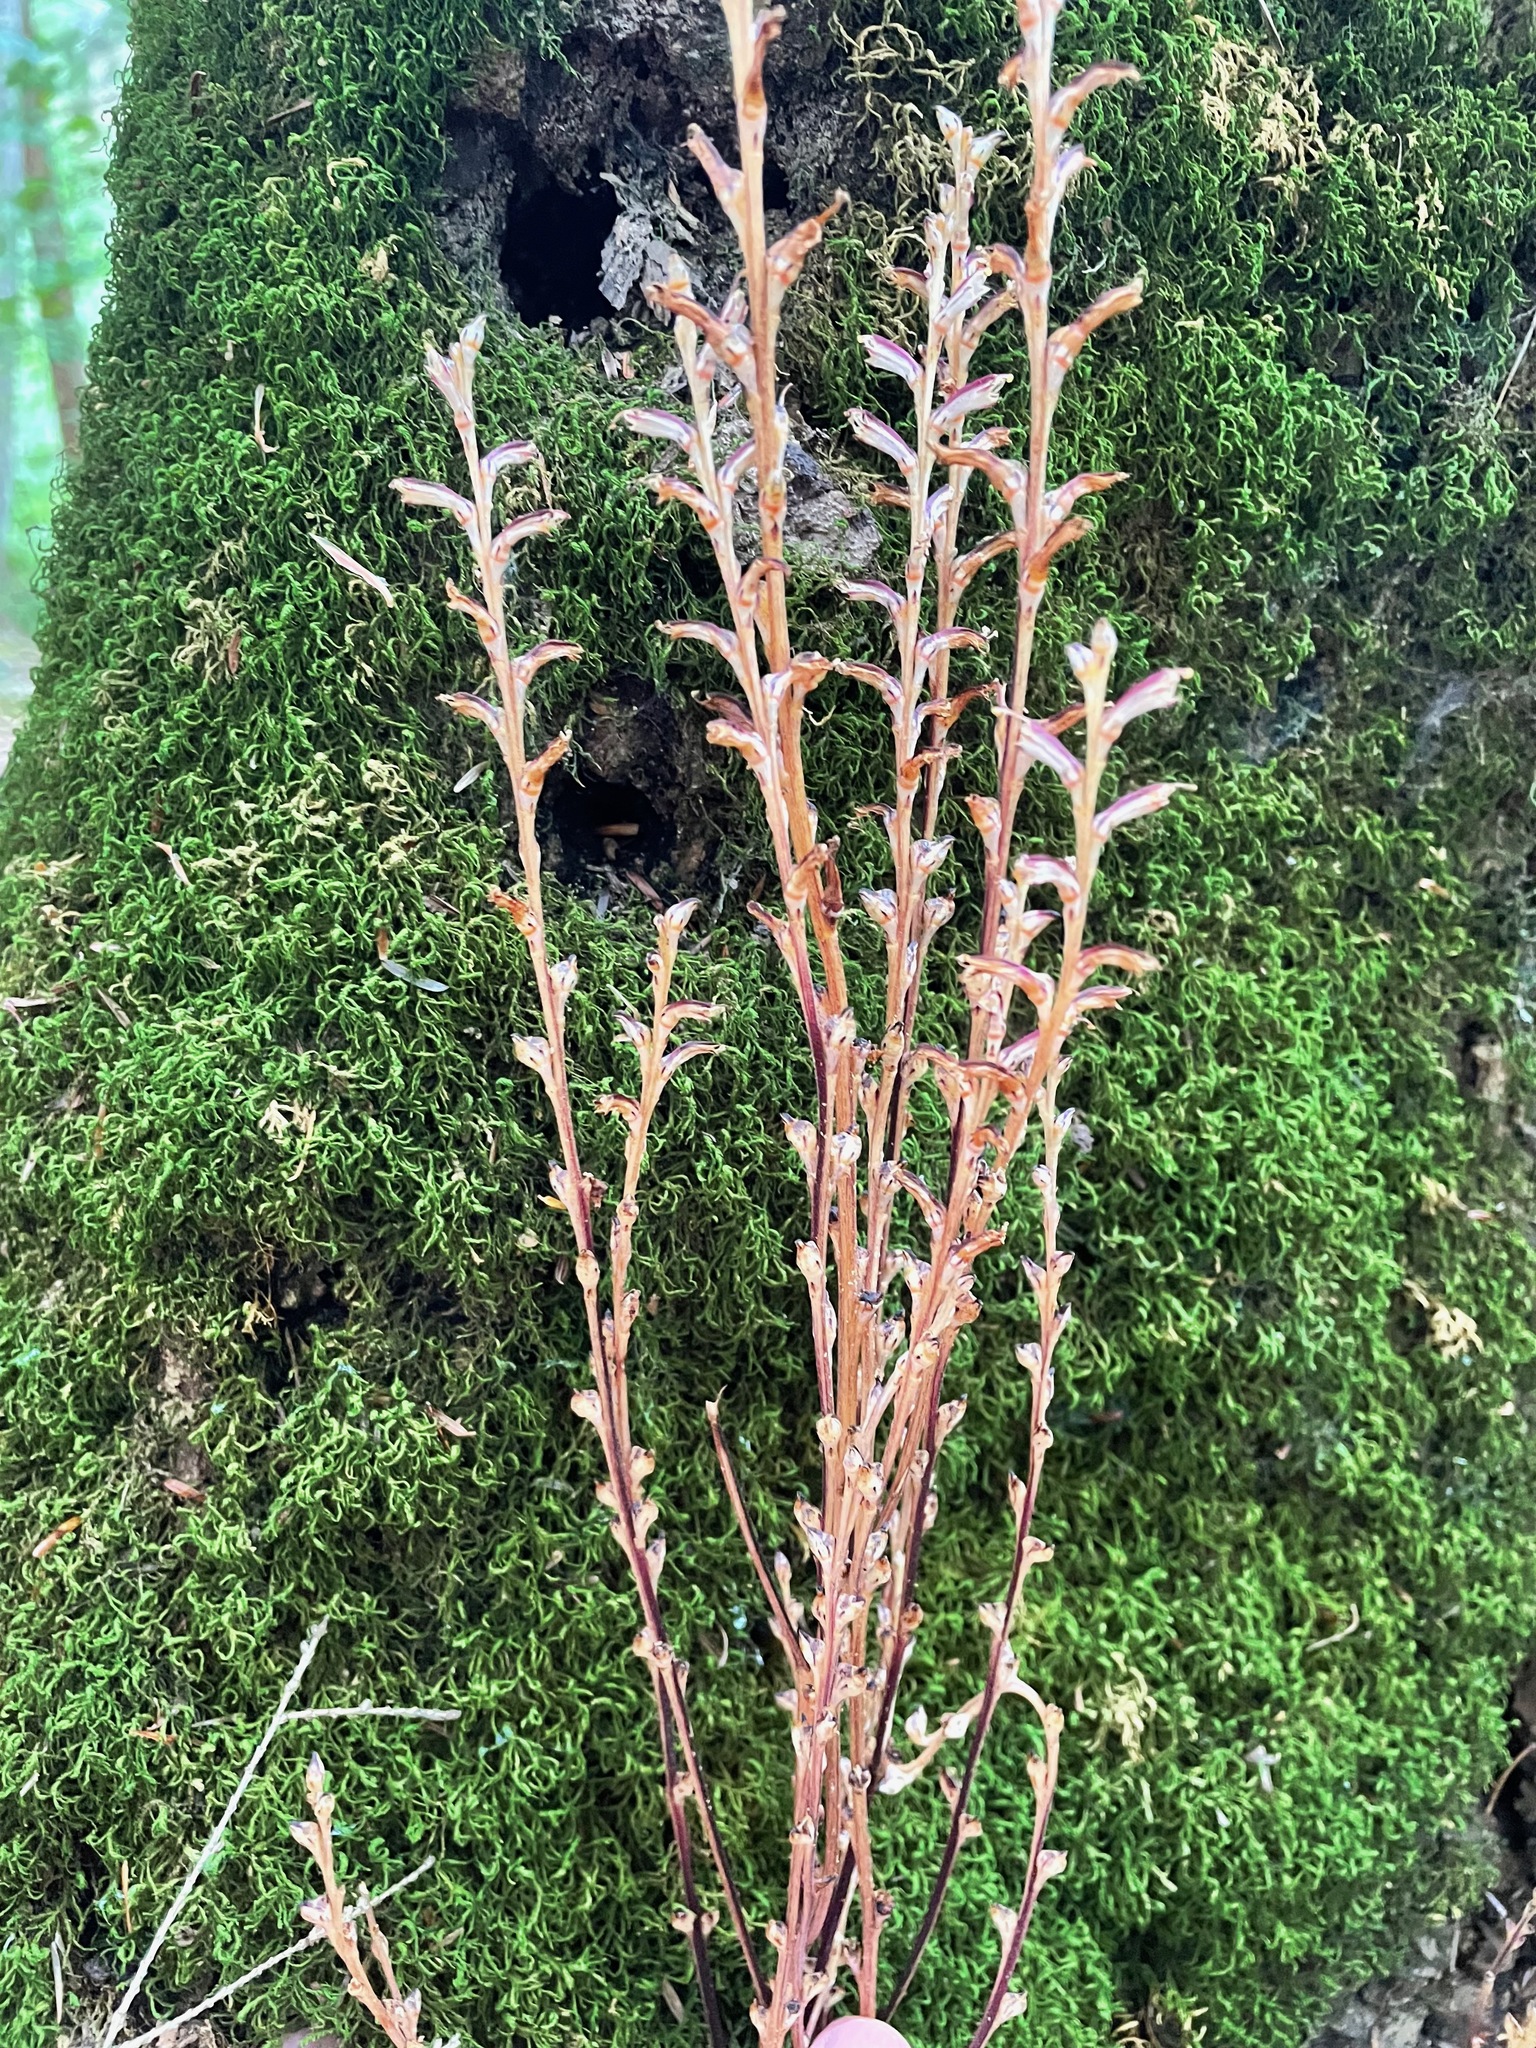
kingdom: Plantae
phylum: Tracheophyta
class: Magnoliopsida
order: Lamiales
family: Orobanchaceae
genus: Epifagus
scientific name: Epifagus virginiana
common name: Beechdrops
